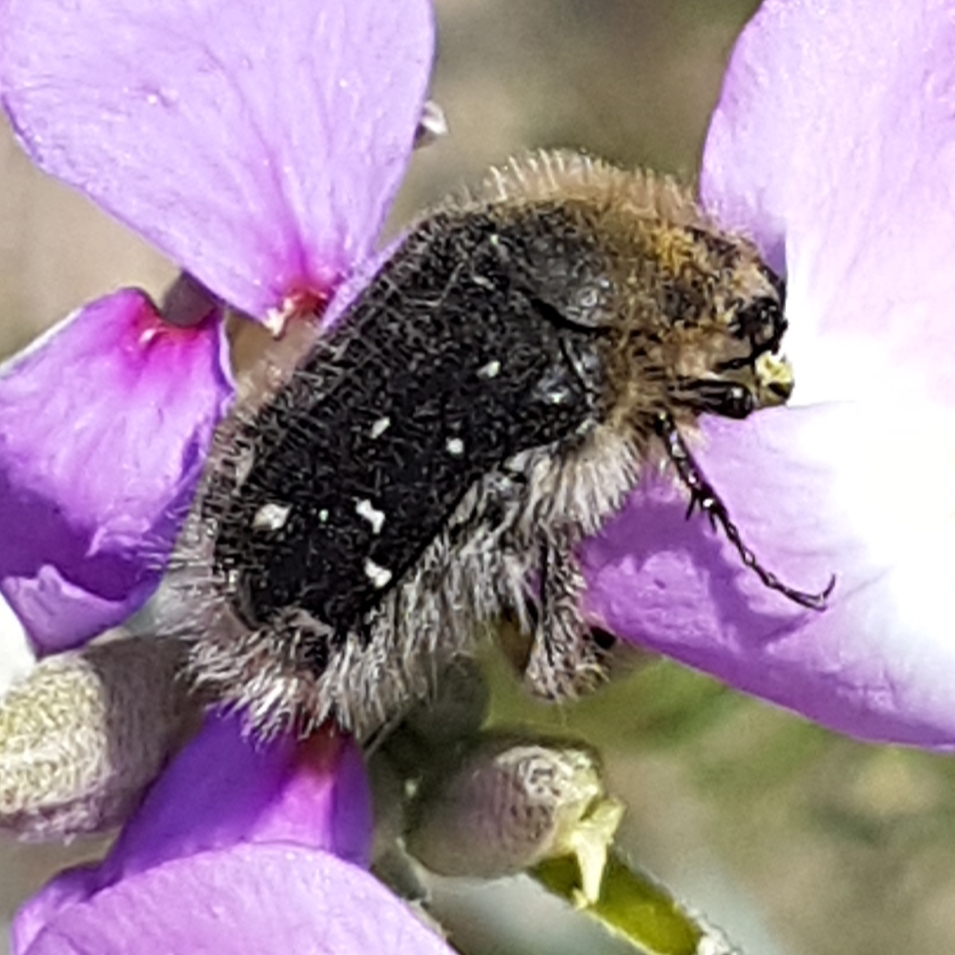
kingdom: Animalia
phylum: Arthropoda
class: Insecta
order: Coleoptera
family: Scarabaeidae
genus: Tropinota
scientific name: Tropinota hirta
